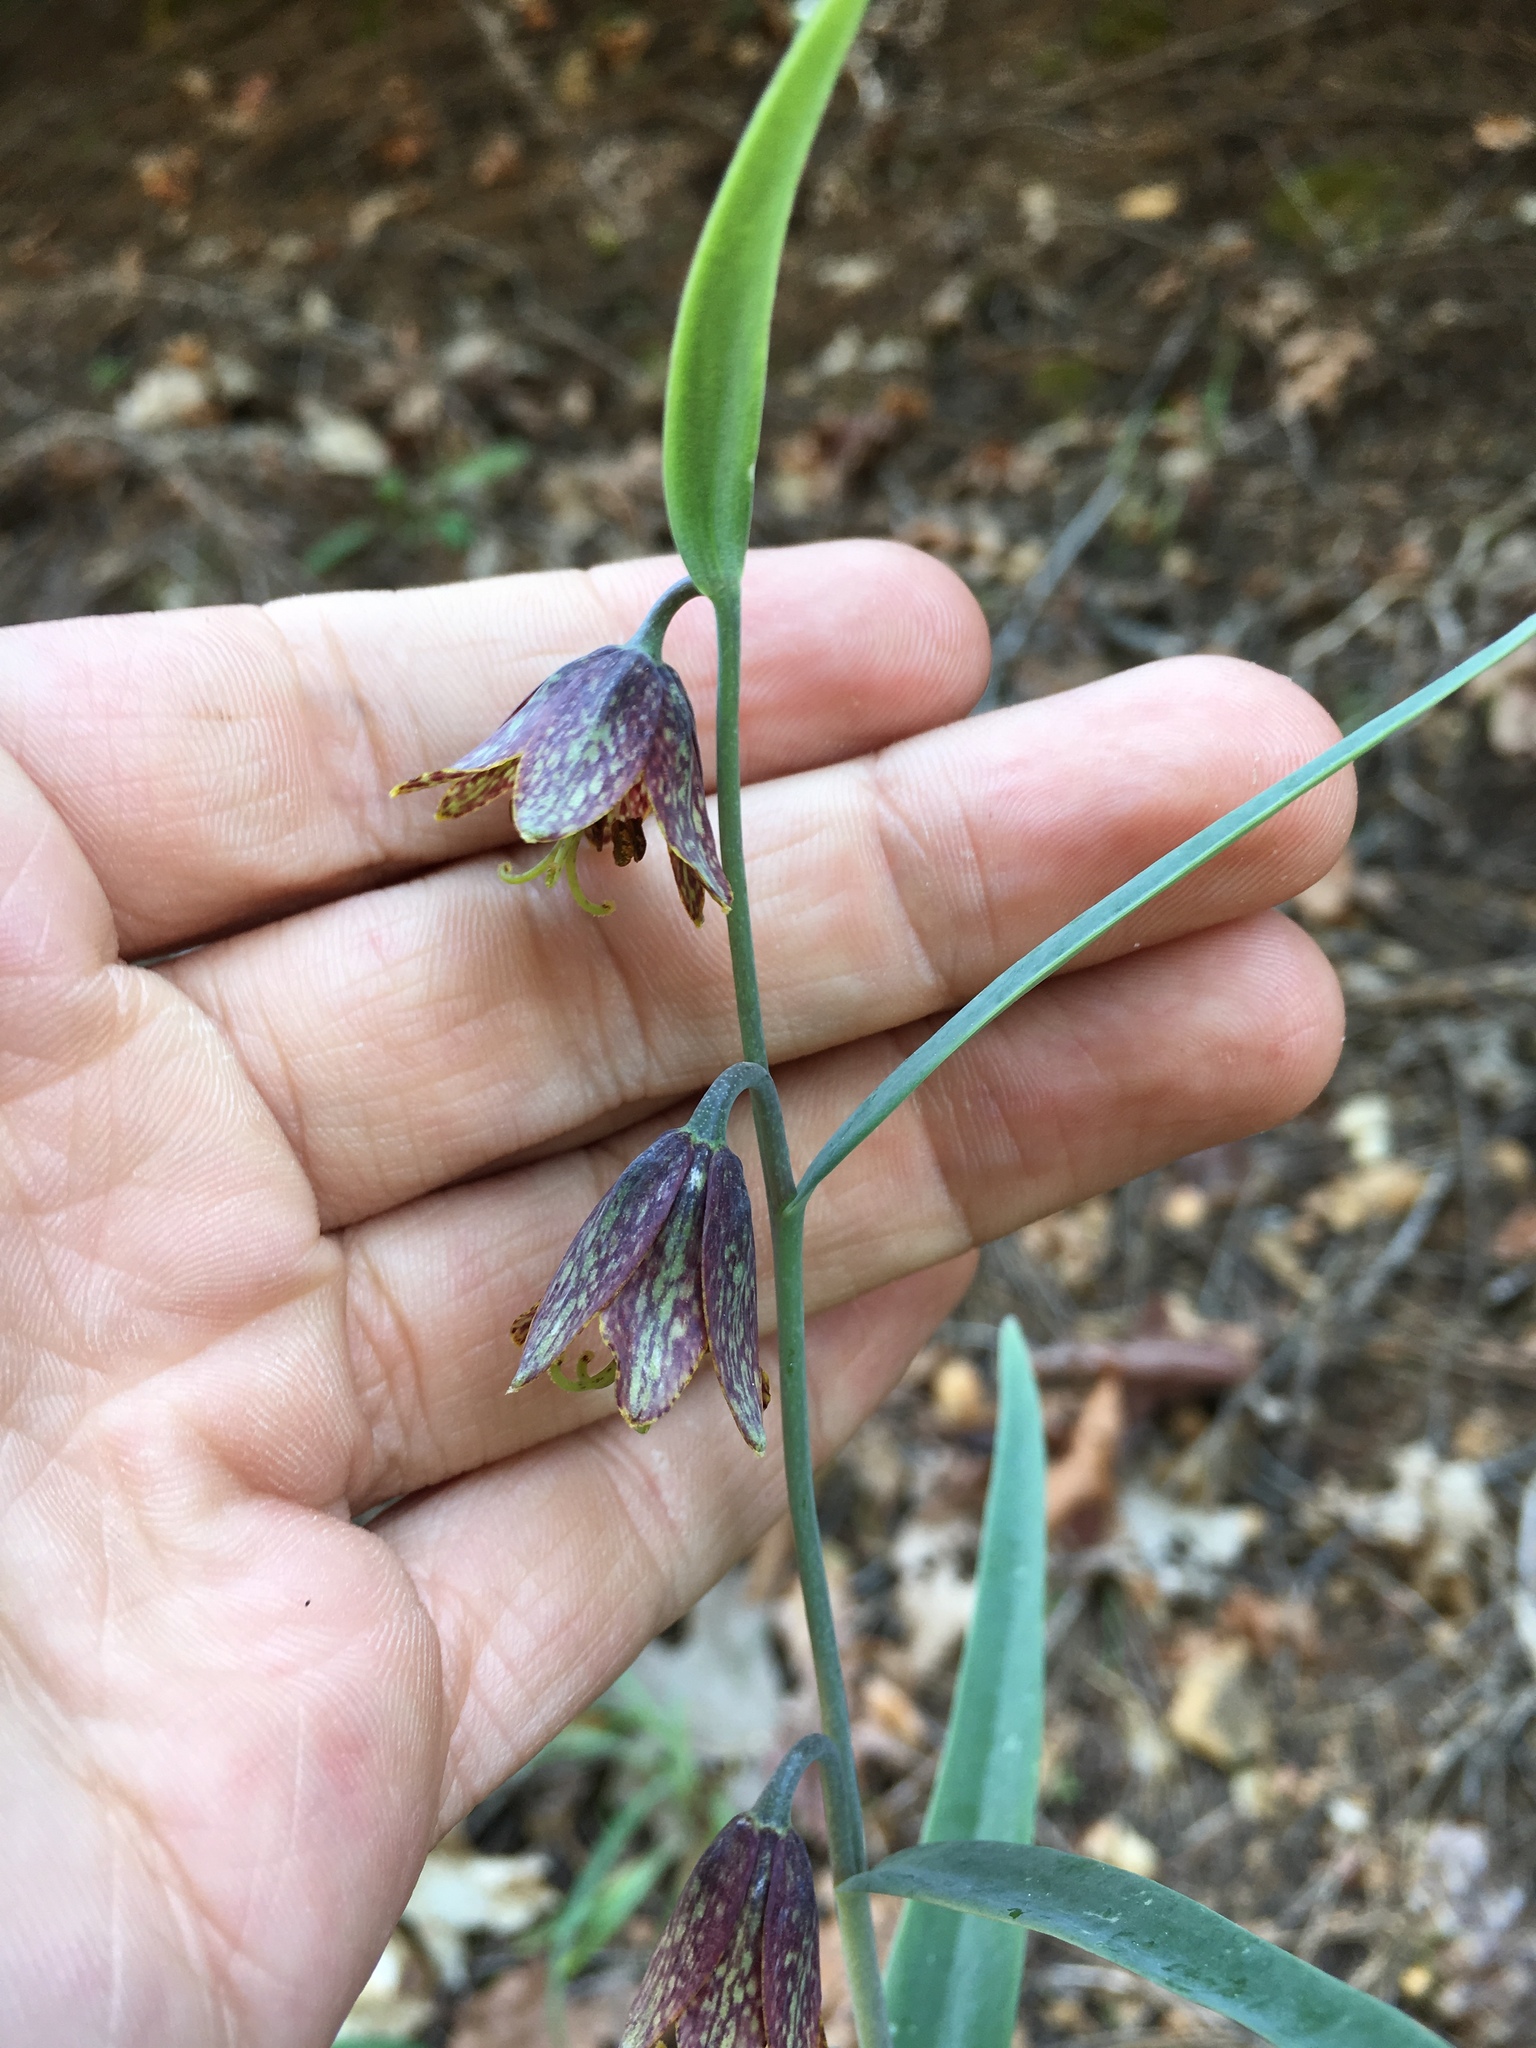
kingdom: Plantae
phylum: Tracheophyta
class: Liliopsida
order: Liliales
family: Liliaceae
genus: Fritillaria
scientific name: Fritillaria affinis
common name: Ojai fritillary
